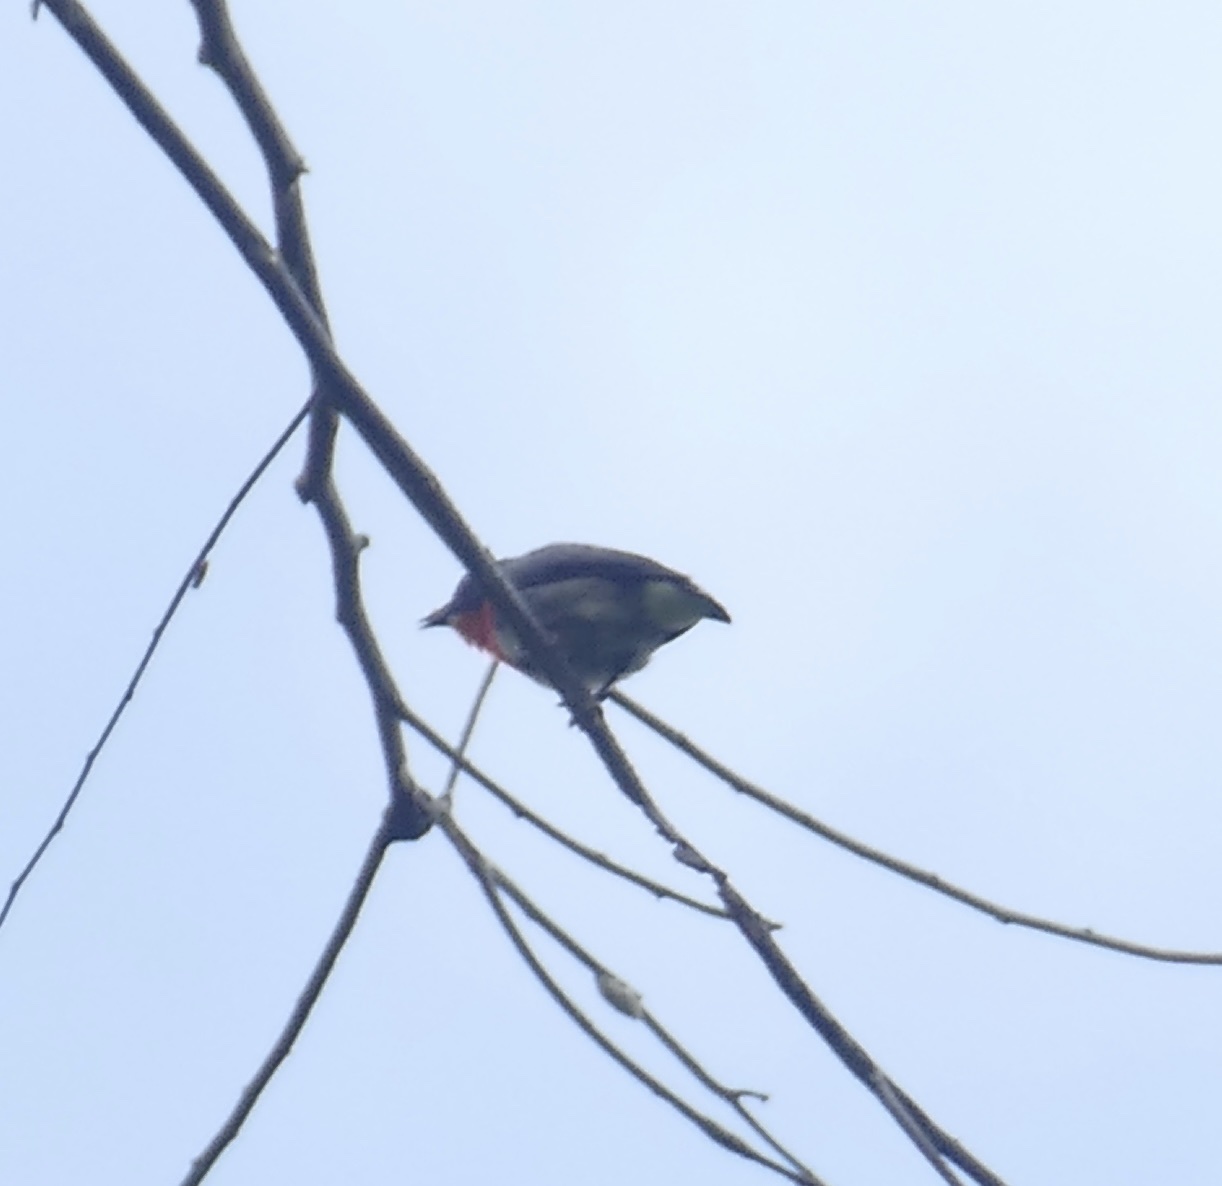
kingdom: Animalia
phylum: Chordata
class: Aves
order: Passeriformes
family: Dicaeidae
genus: Dicaeum
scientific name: Dicaeum celebicum
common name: Grey-sided flowerpecker
